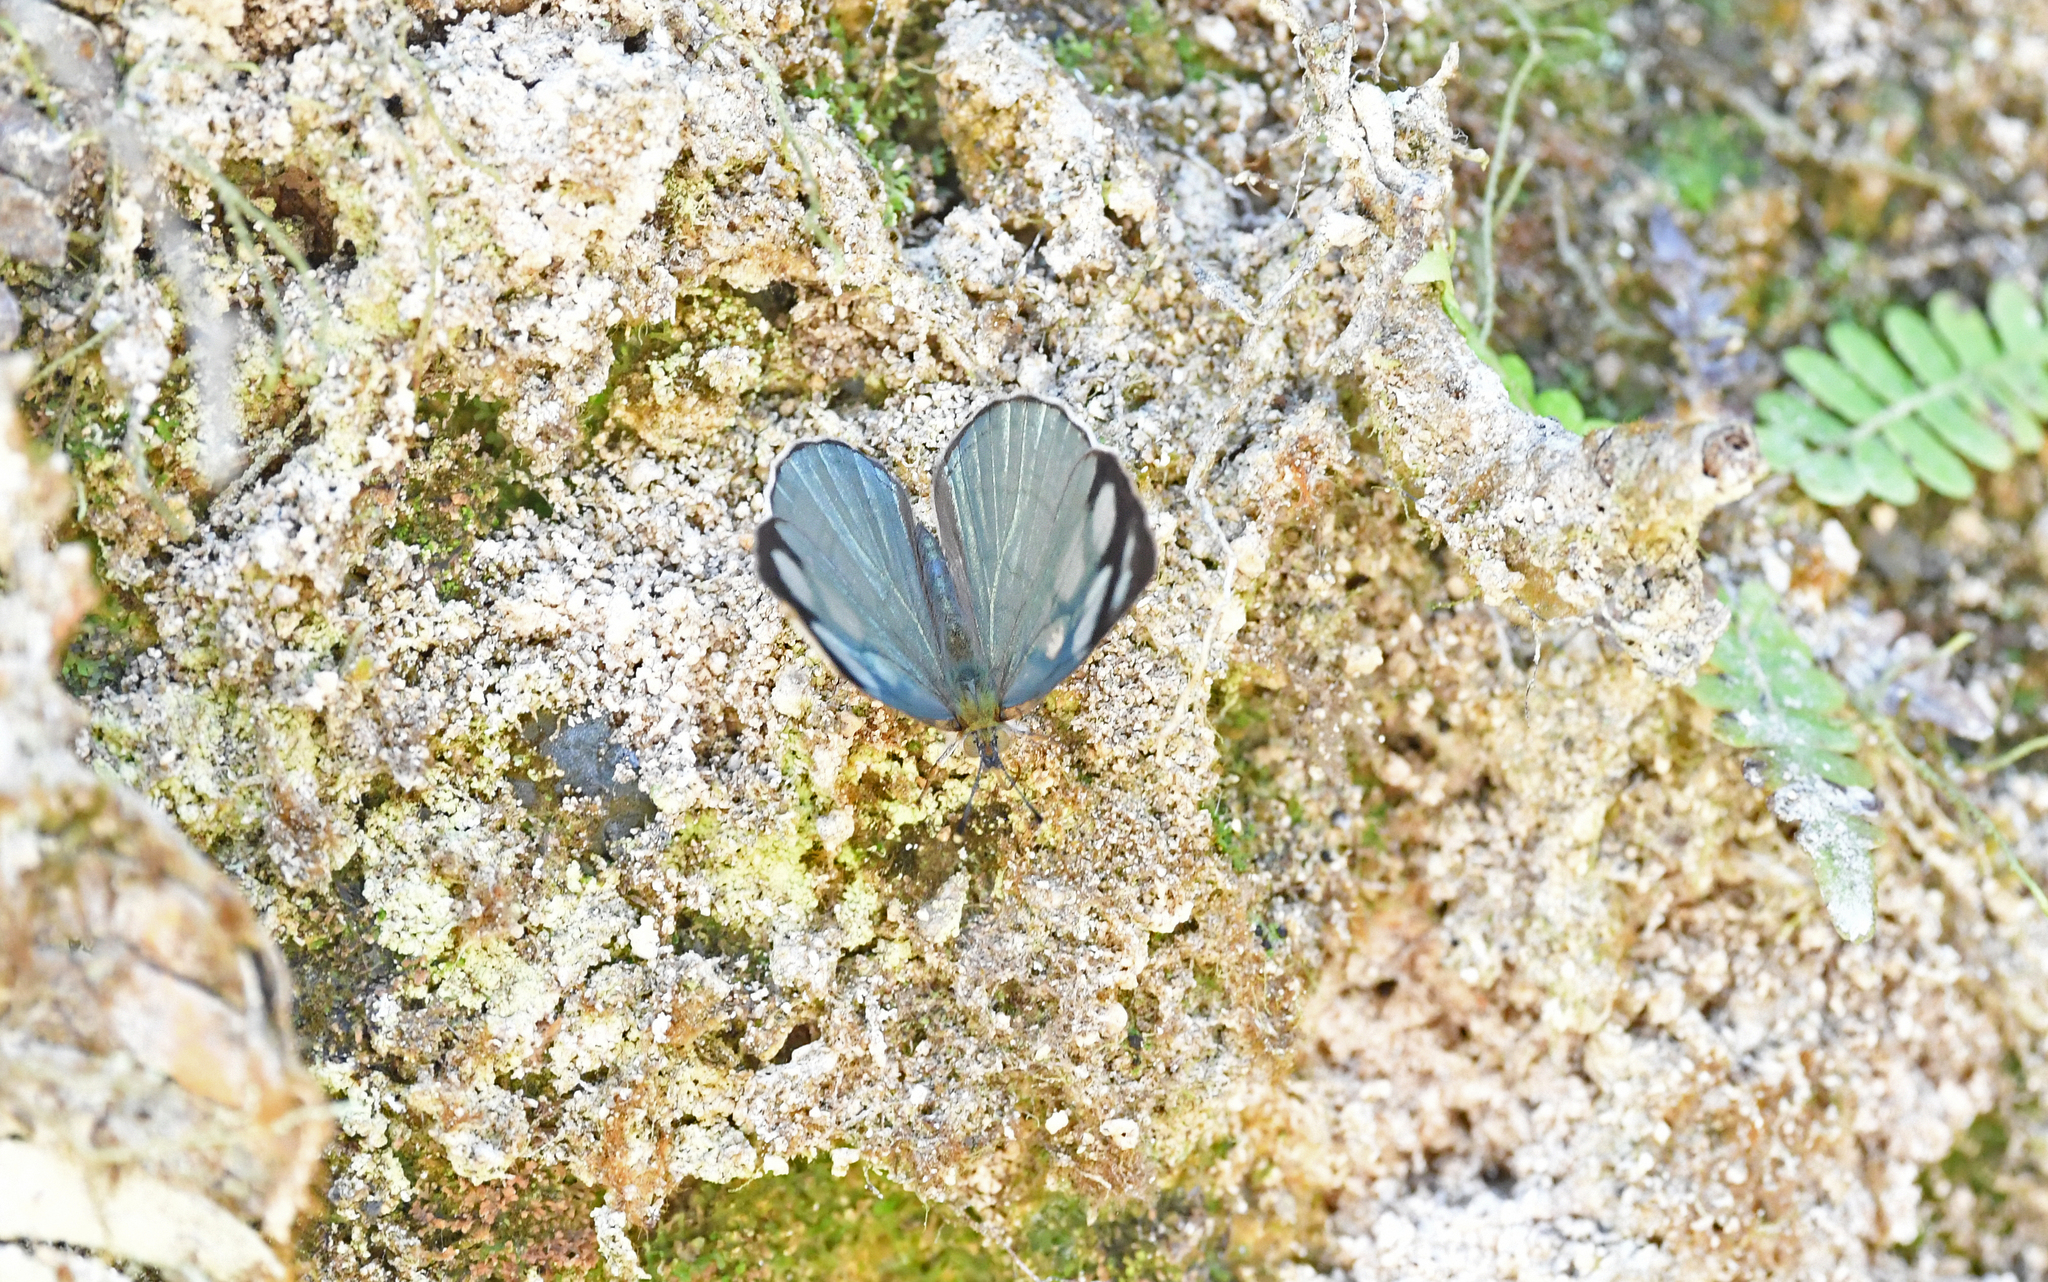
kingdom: Animalia
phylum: Arthropoda
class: Insecta
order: Lepidoptera
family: Nymphalidae
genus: Dynamine
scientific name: Dynamine setabis
